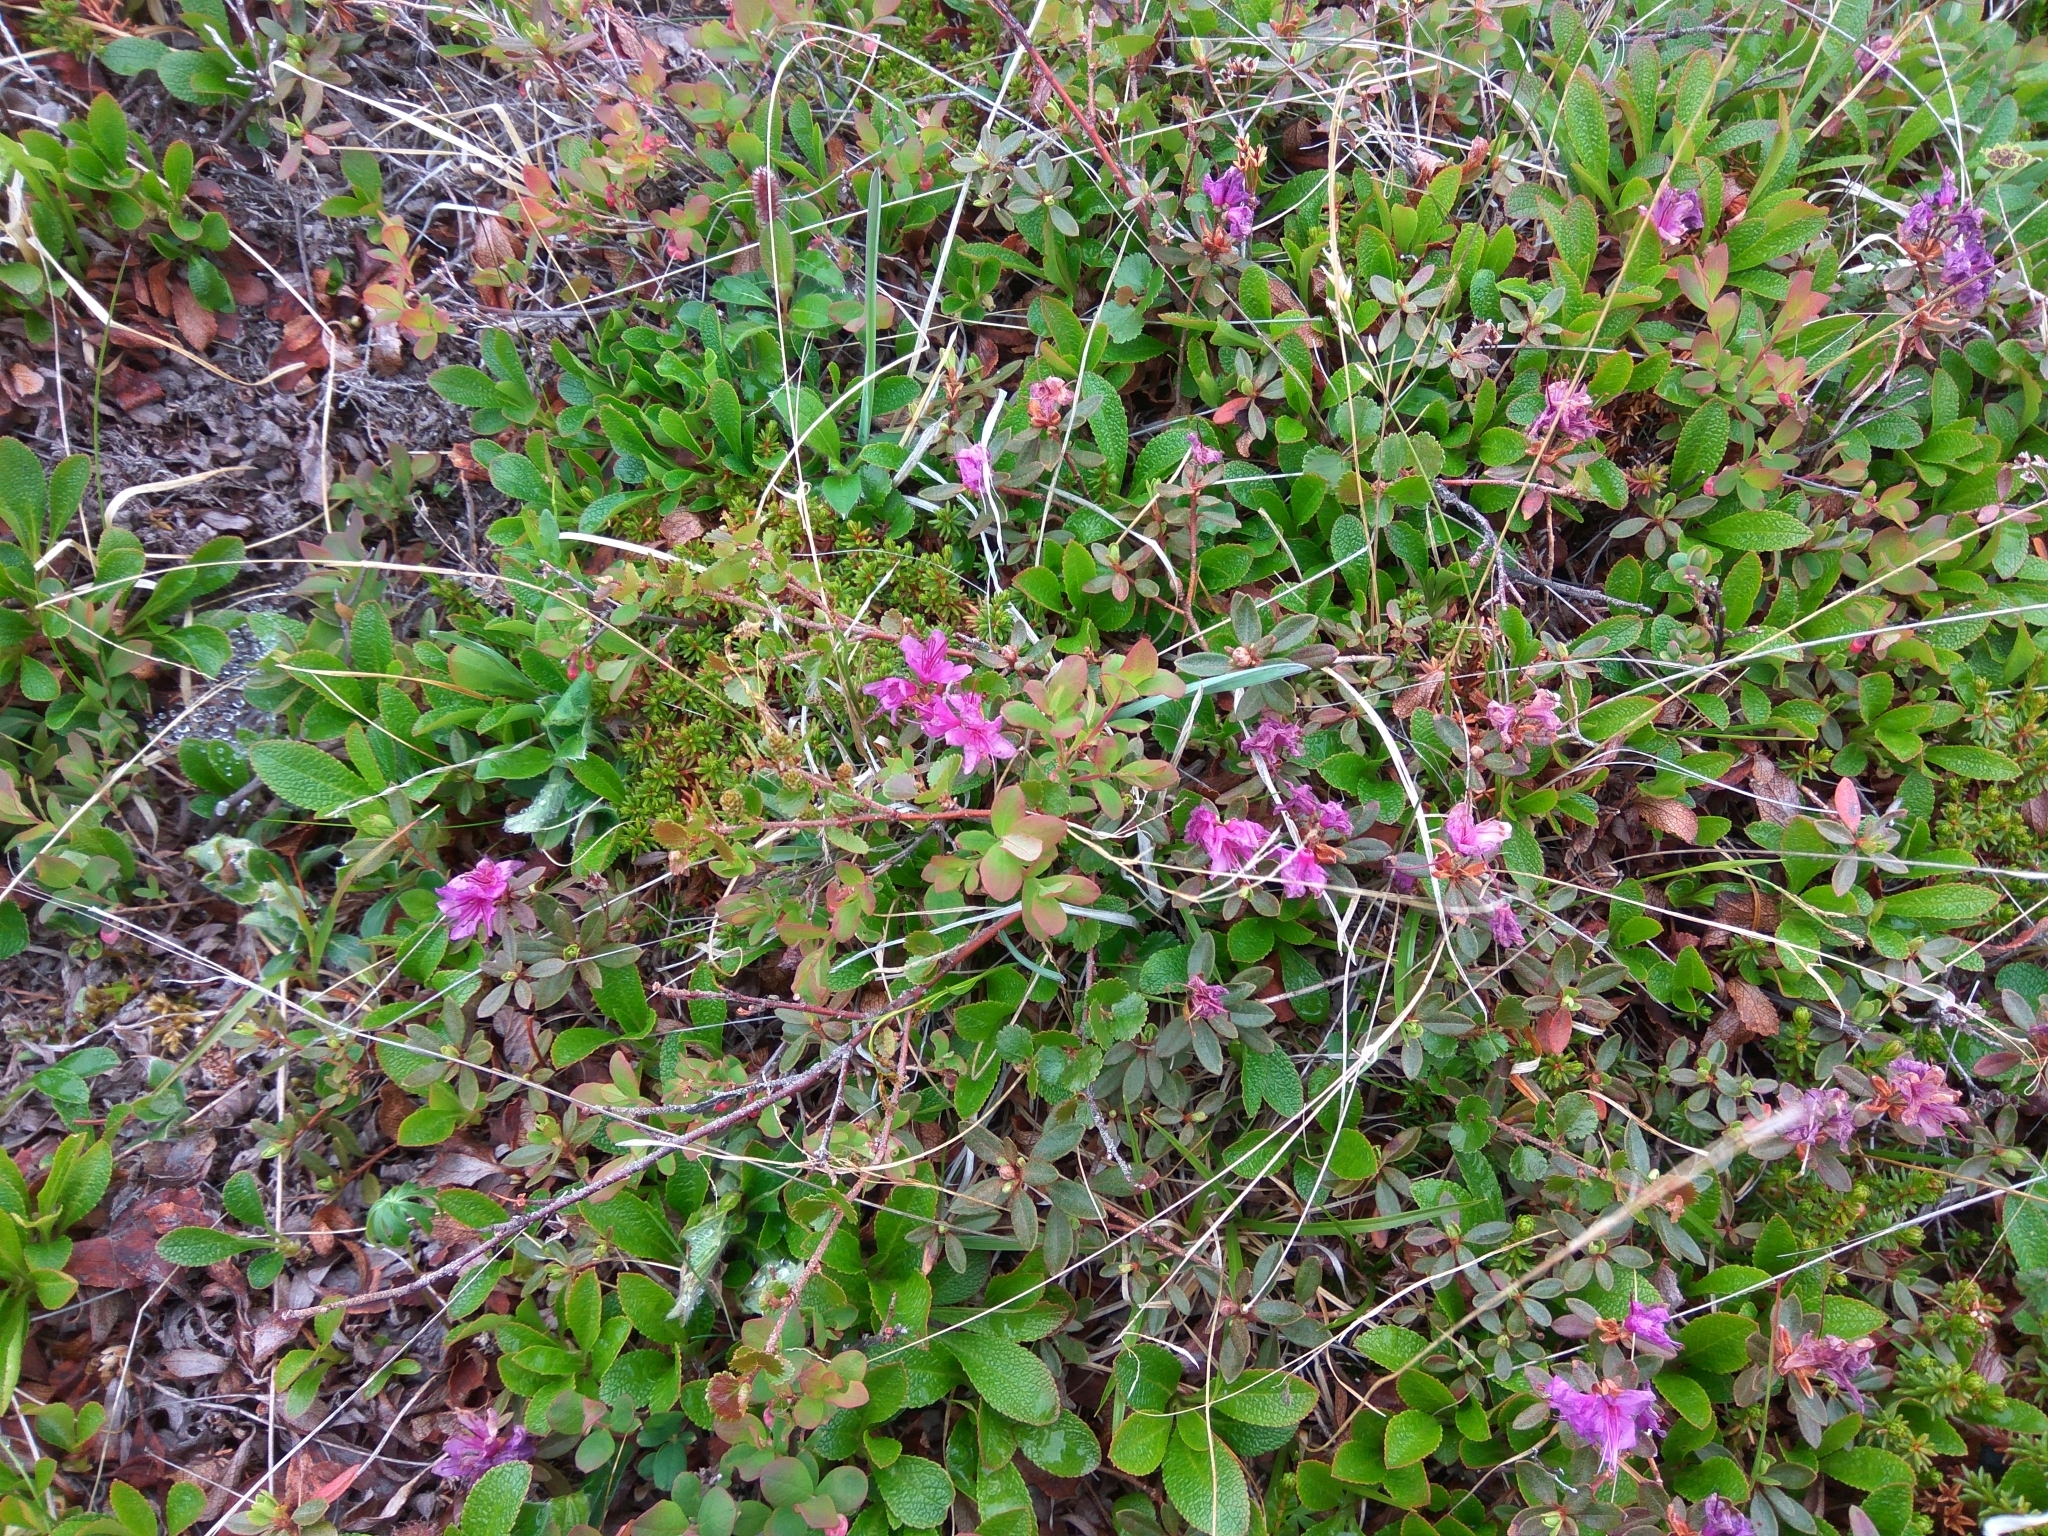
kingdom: Plantae
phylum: Tracheophyta
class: Magnoliopsida
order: Ericales
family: Ericaceae
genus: Rhododendron
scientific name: Rhododendron lapponicum
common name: Lapland rhododendron
